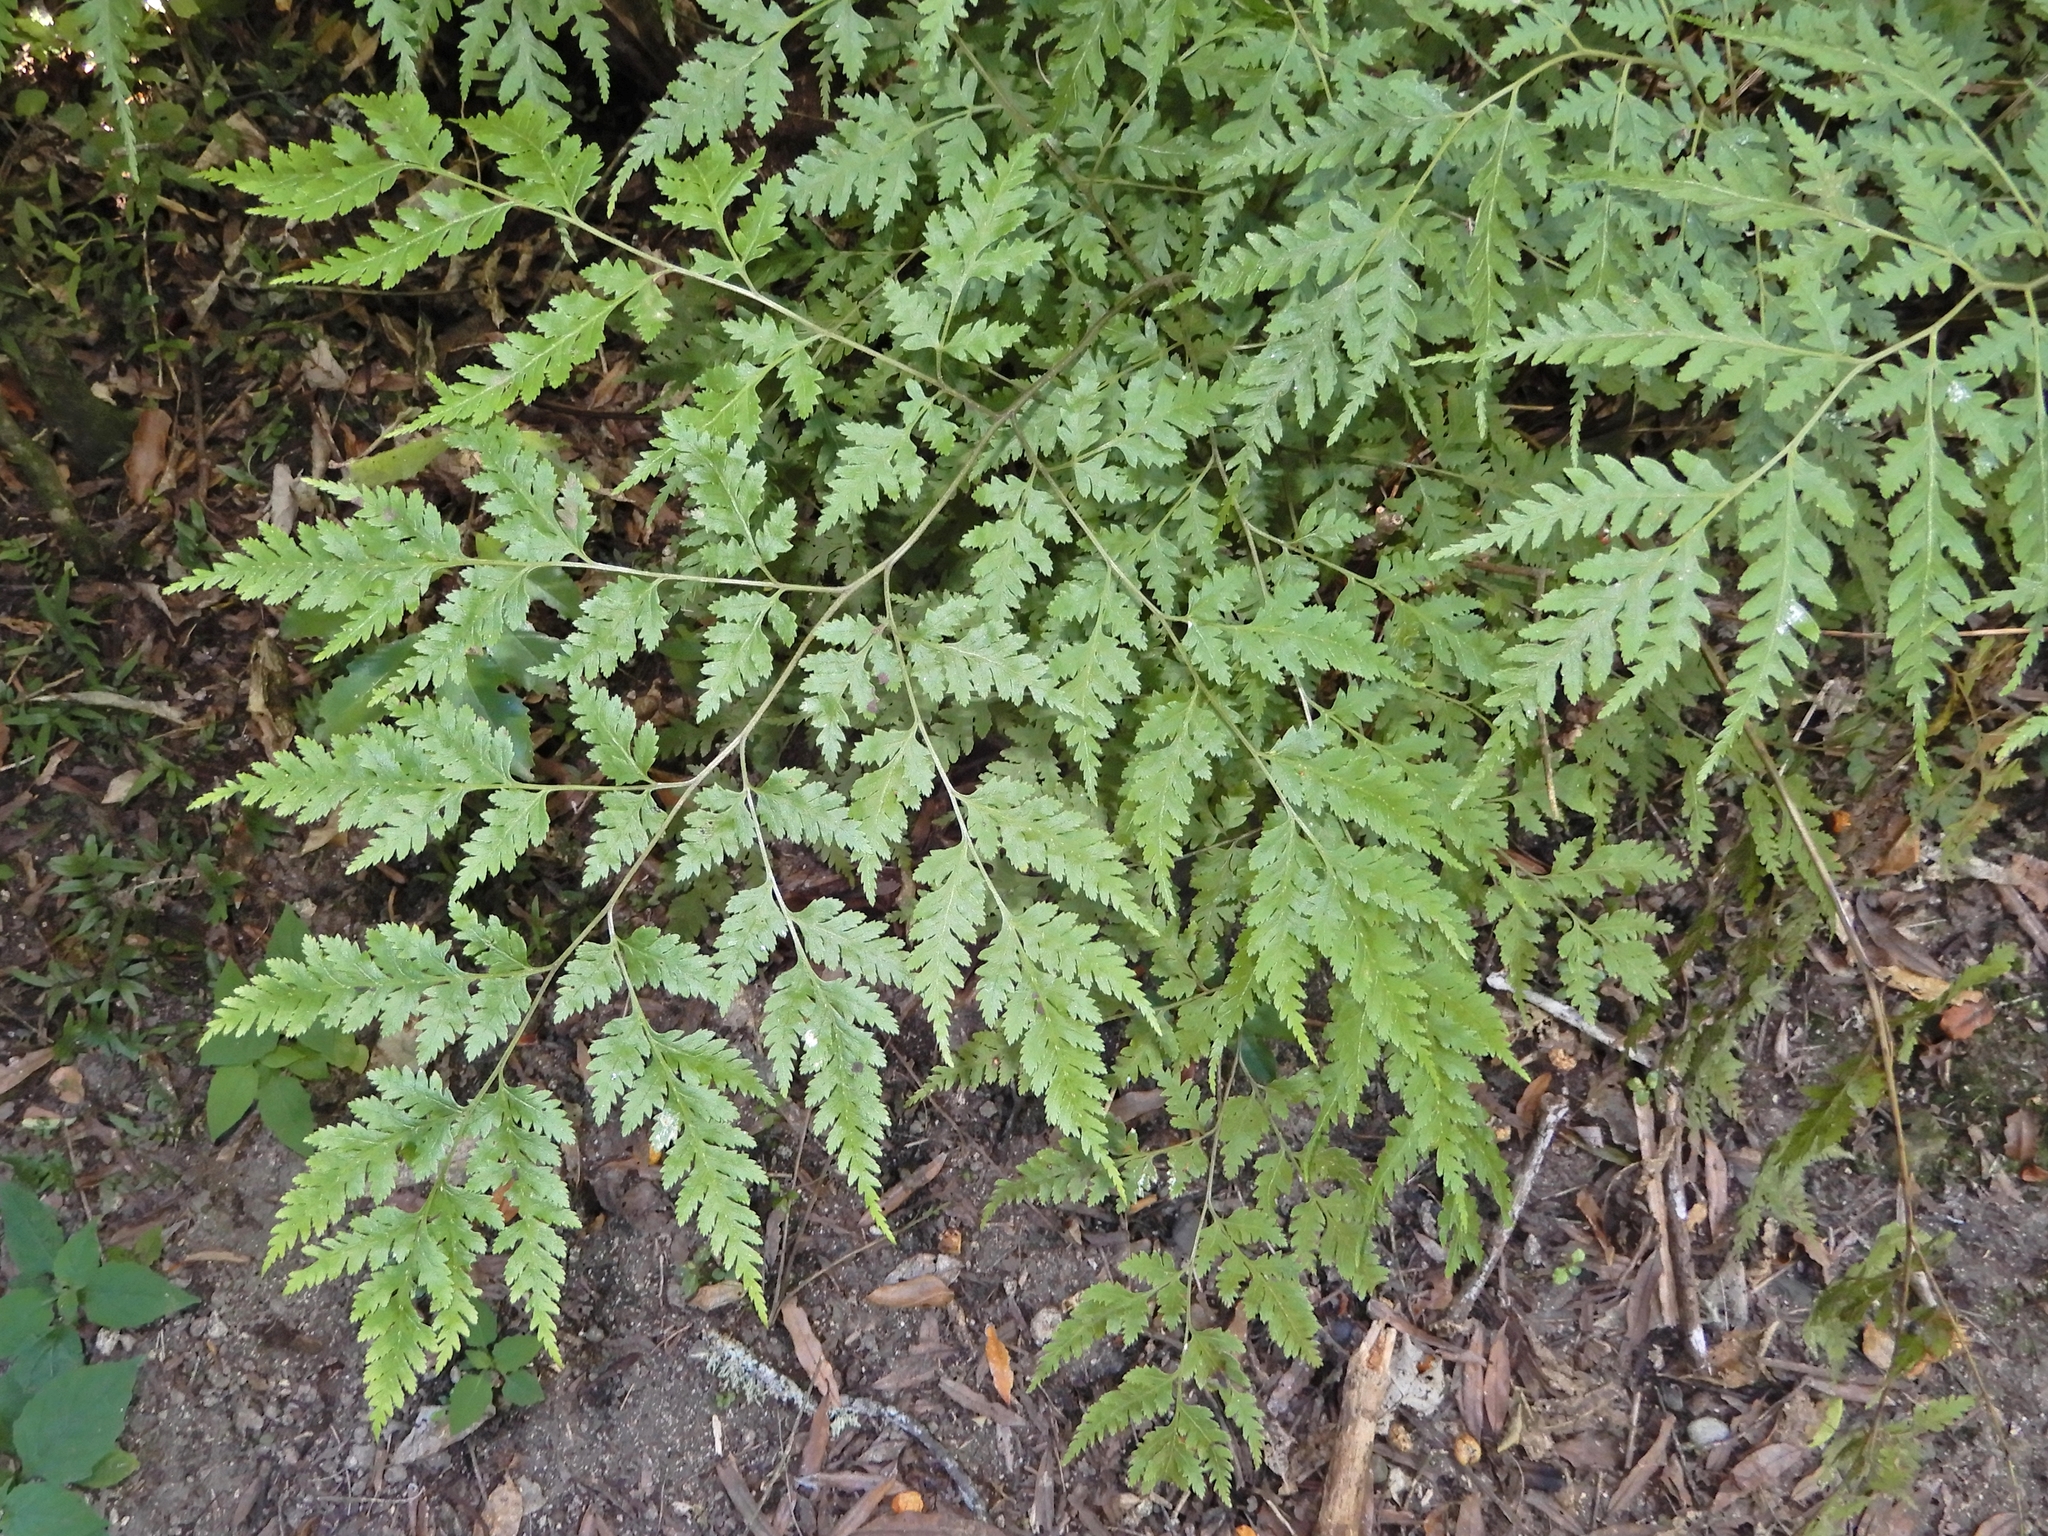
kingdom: Plantae
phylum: Tracheophyta
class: Polypodiopsida
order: Polypodiales
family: Pteridaceae
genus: Pteris
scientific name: Pteris macilenta
